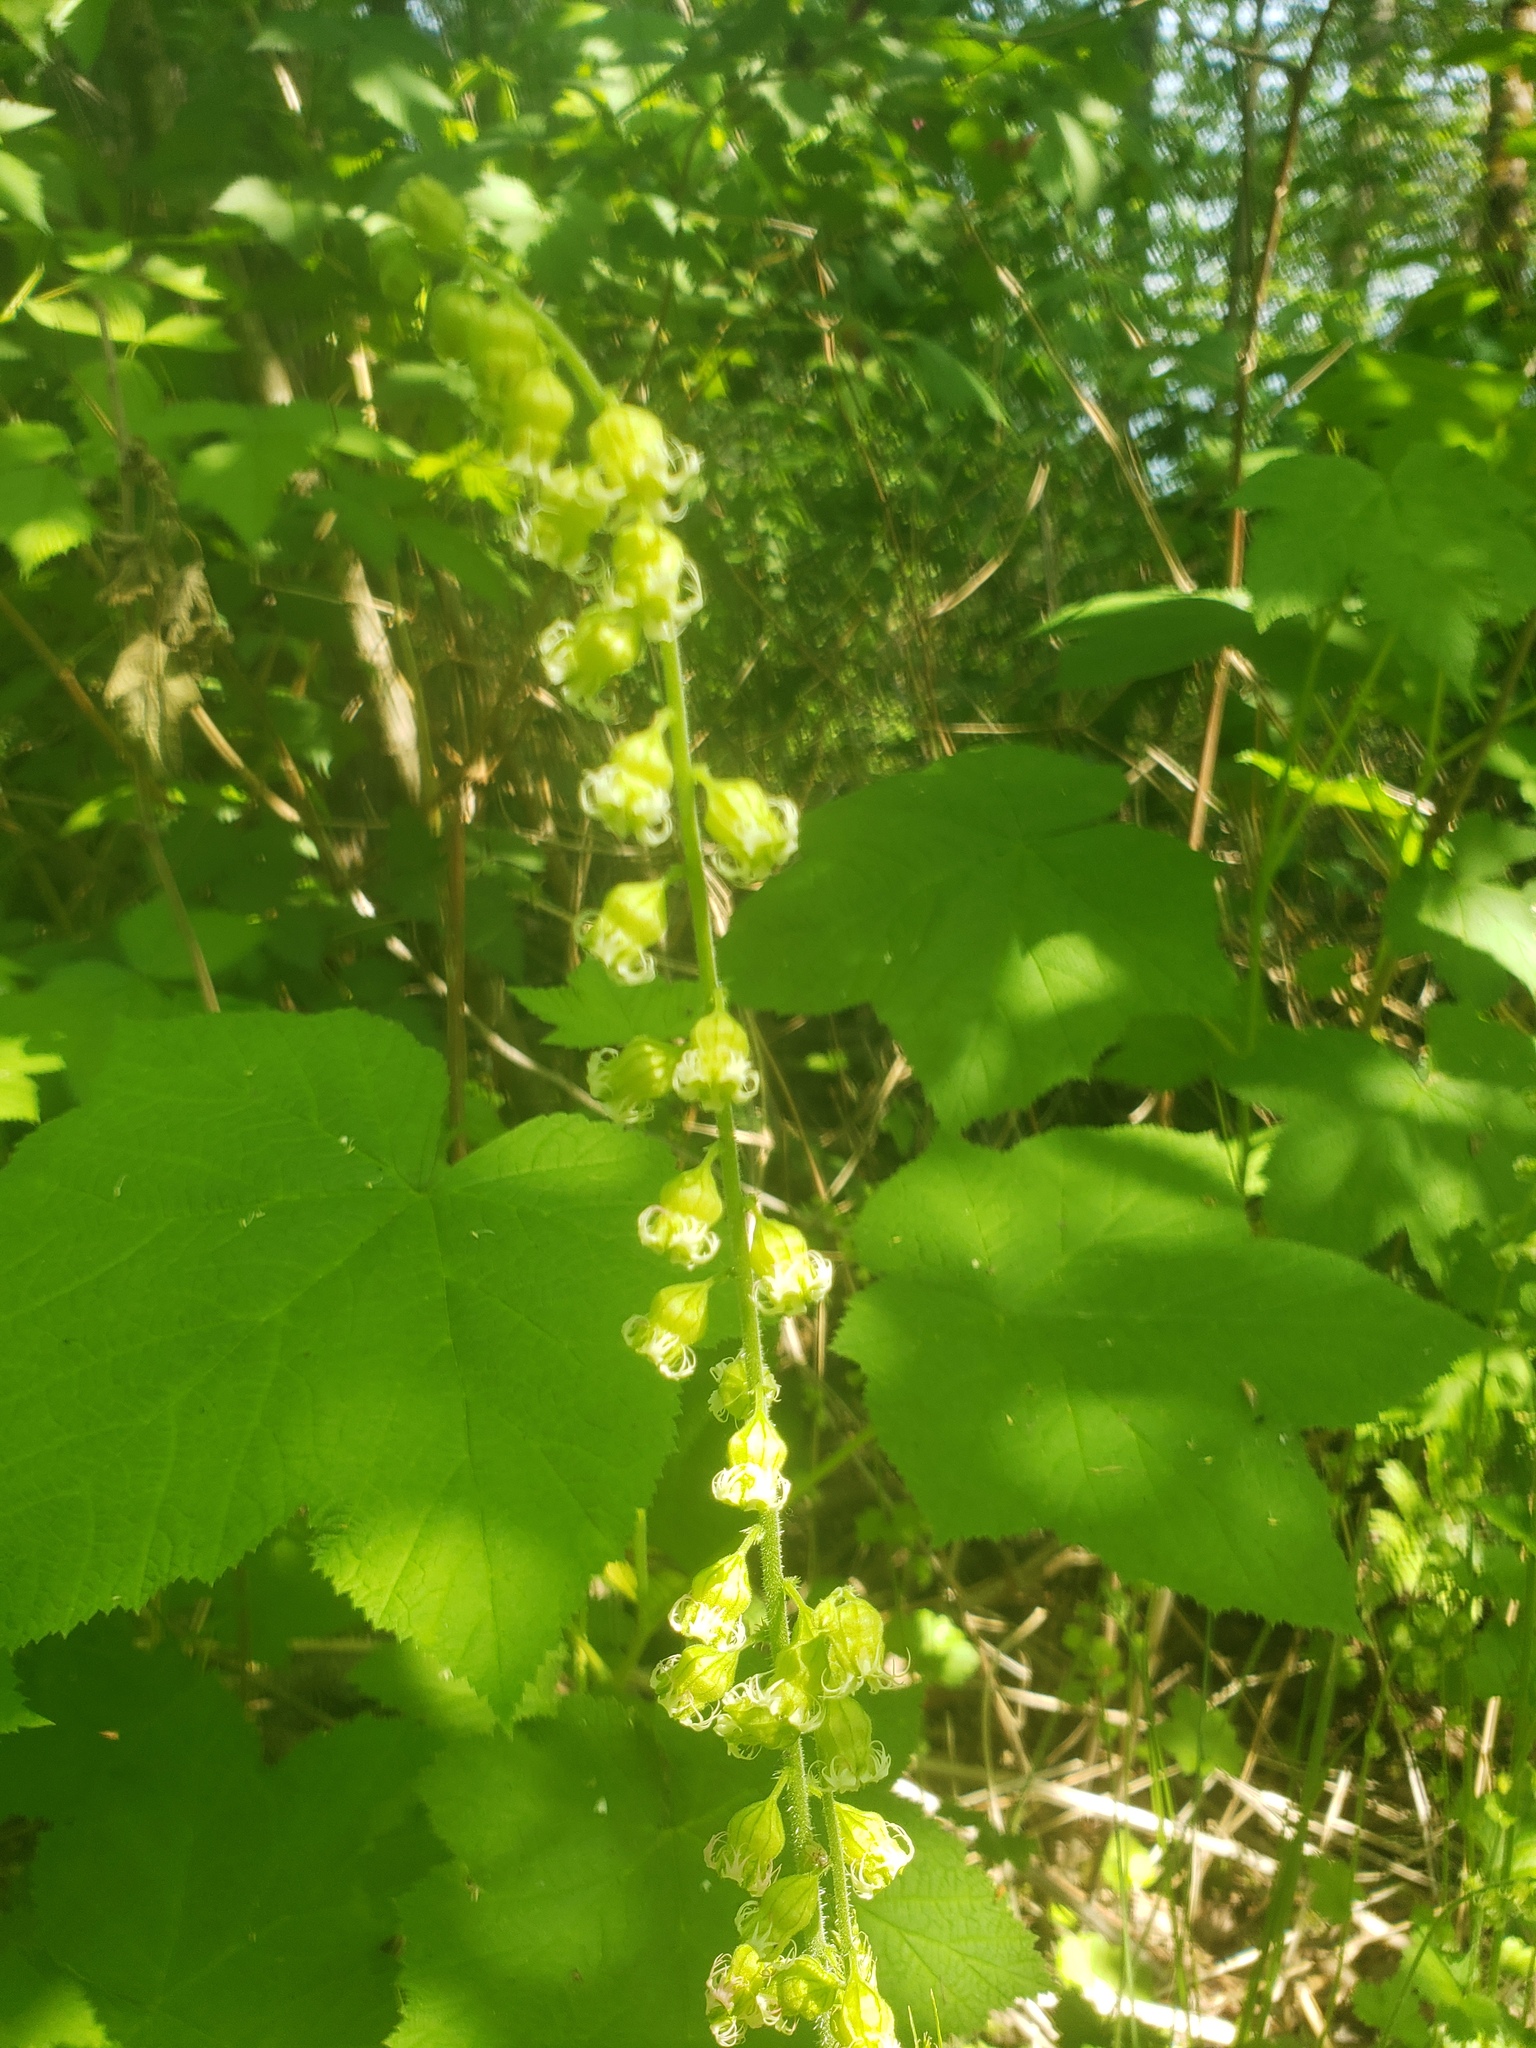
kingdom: Plantae
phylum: Tracheophyta
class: Magnoliopsida
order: Saxifragales
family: Saxifragaceae
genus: Tellima
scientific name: Tellima grandiflora
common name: Fringecups
